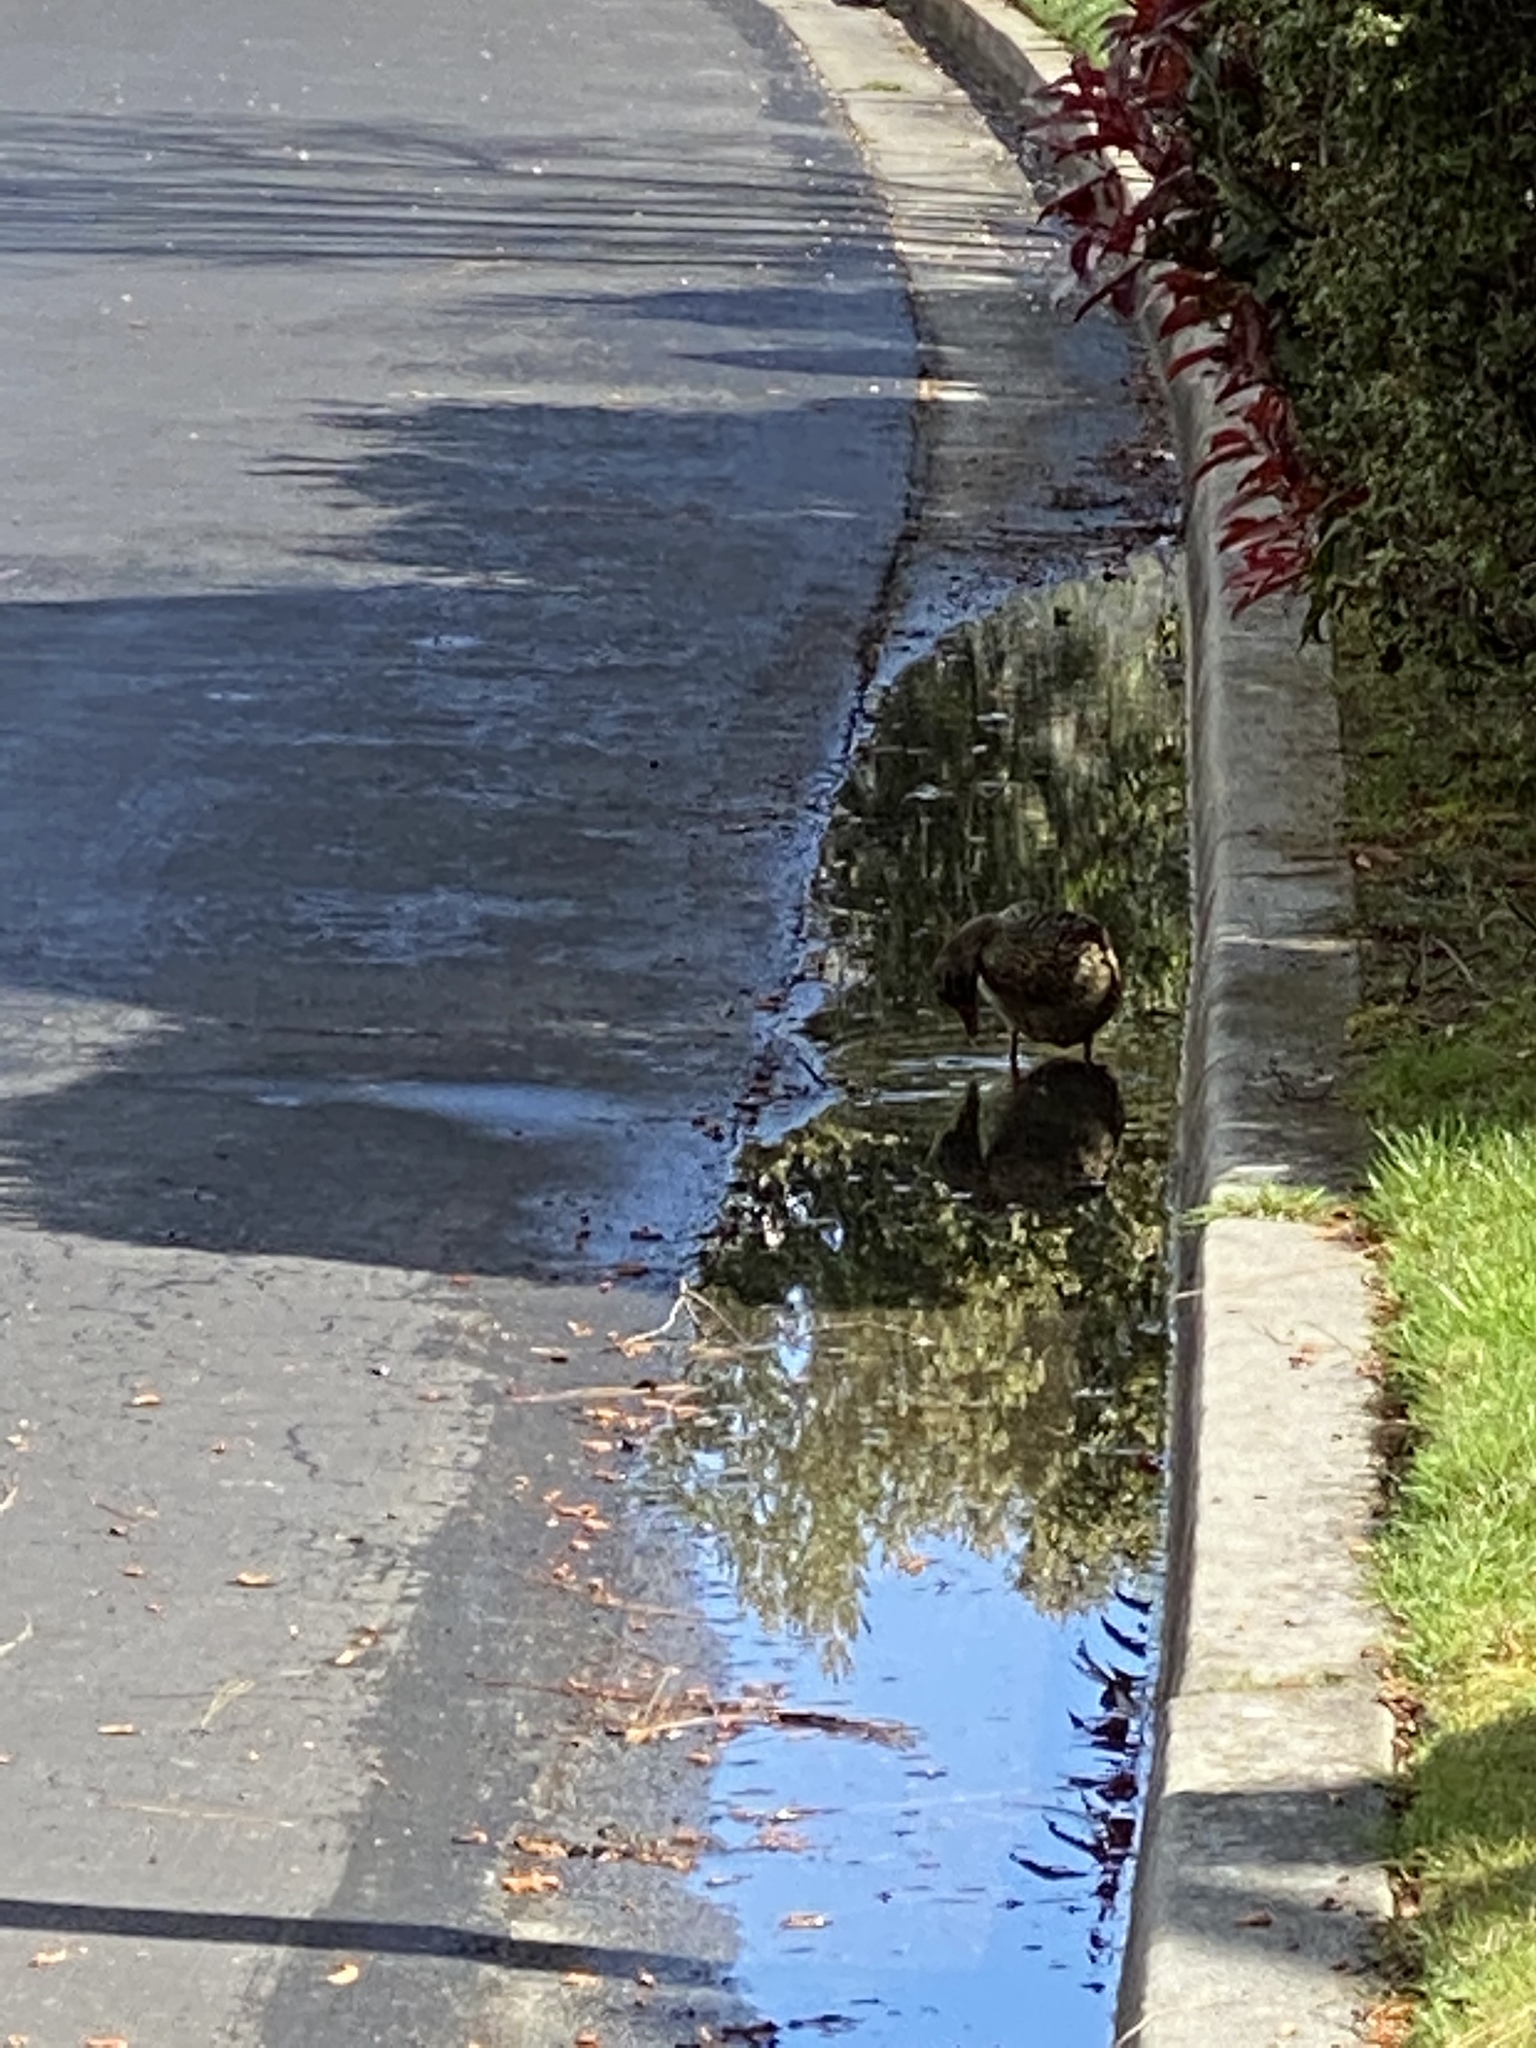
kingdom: Animalia
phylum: Chordata
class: Aves
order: Anseriformes
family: Anatidae
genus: Anas
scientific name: Anas platyrhynchos
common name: Mallard
